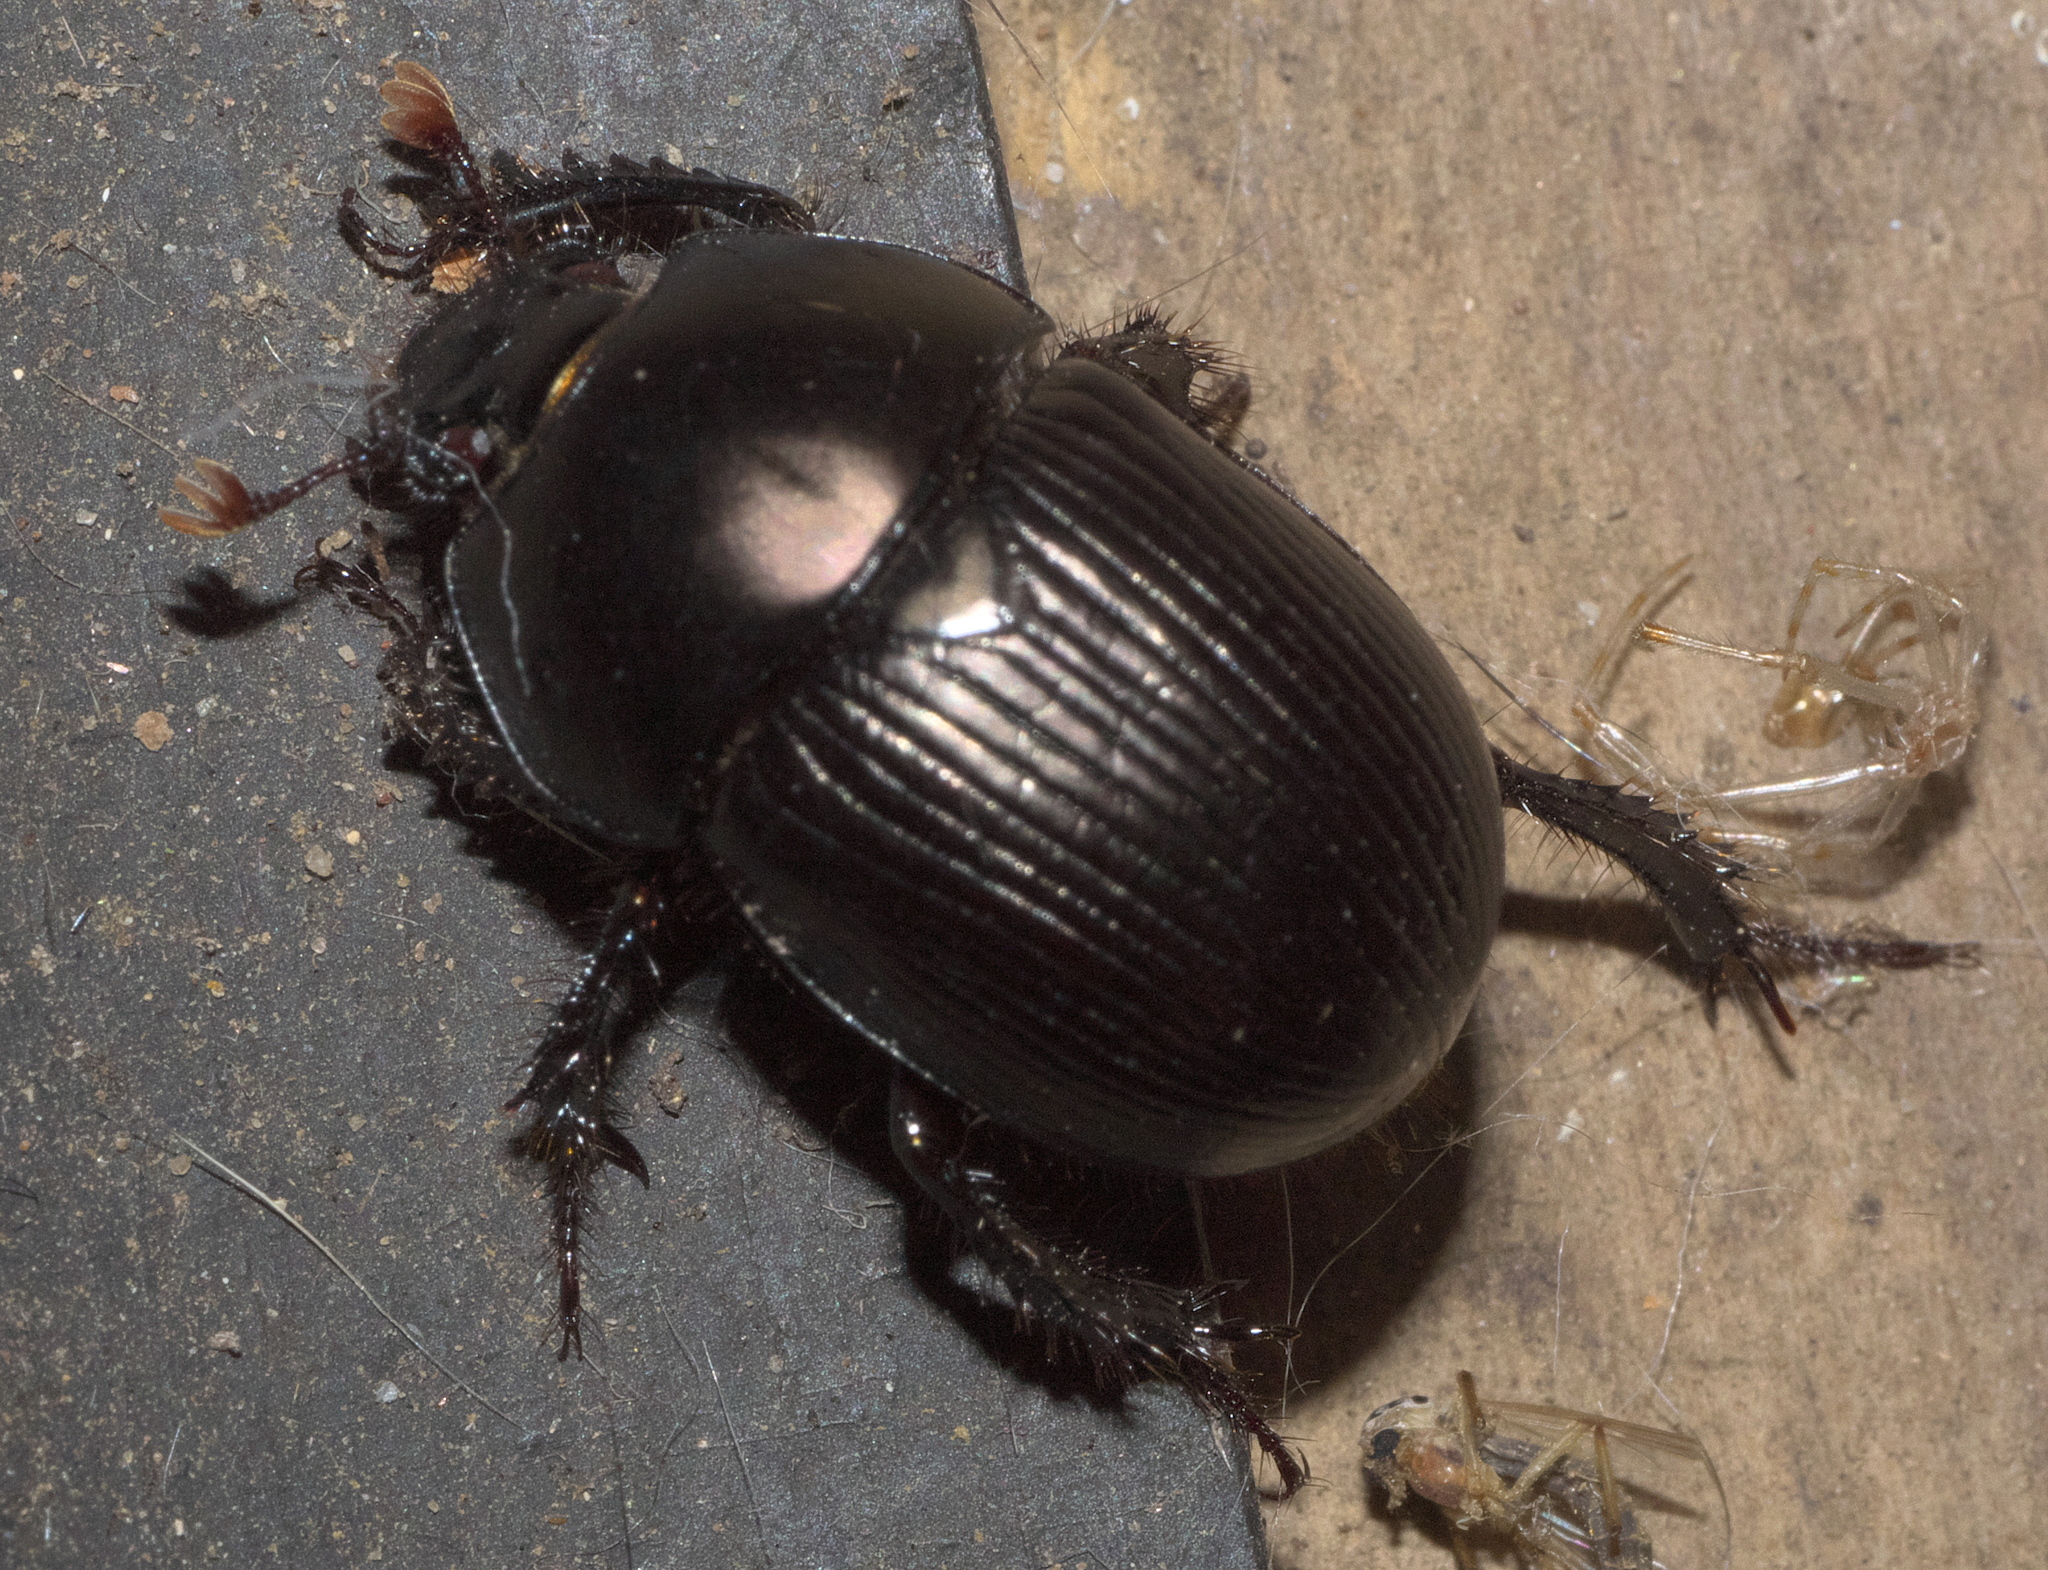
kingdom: Animalia
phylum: Arthropoda
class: Insecta
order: Coleoptera
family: Geotrupidae
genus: Cnemotrupes
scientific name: Cnemotrupes semiopacus
